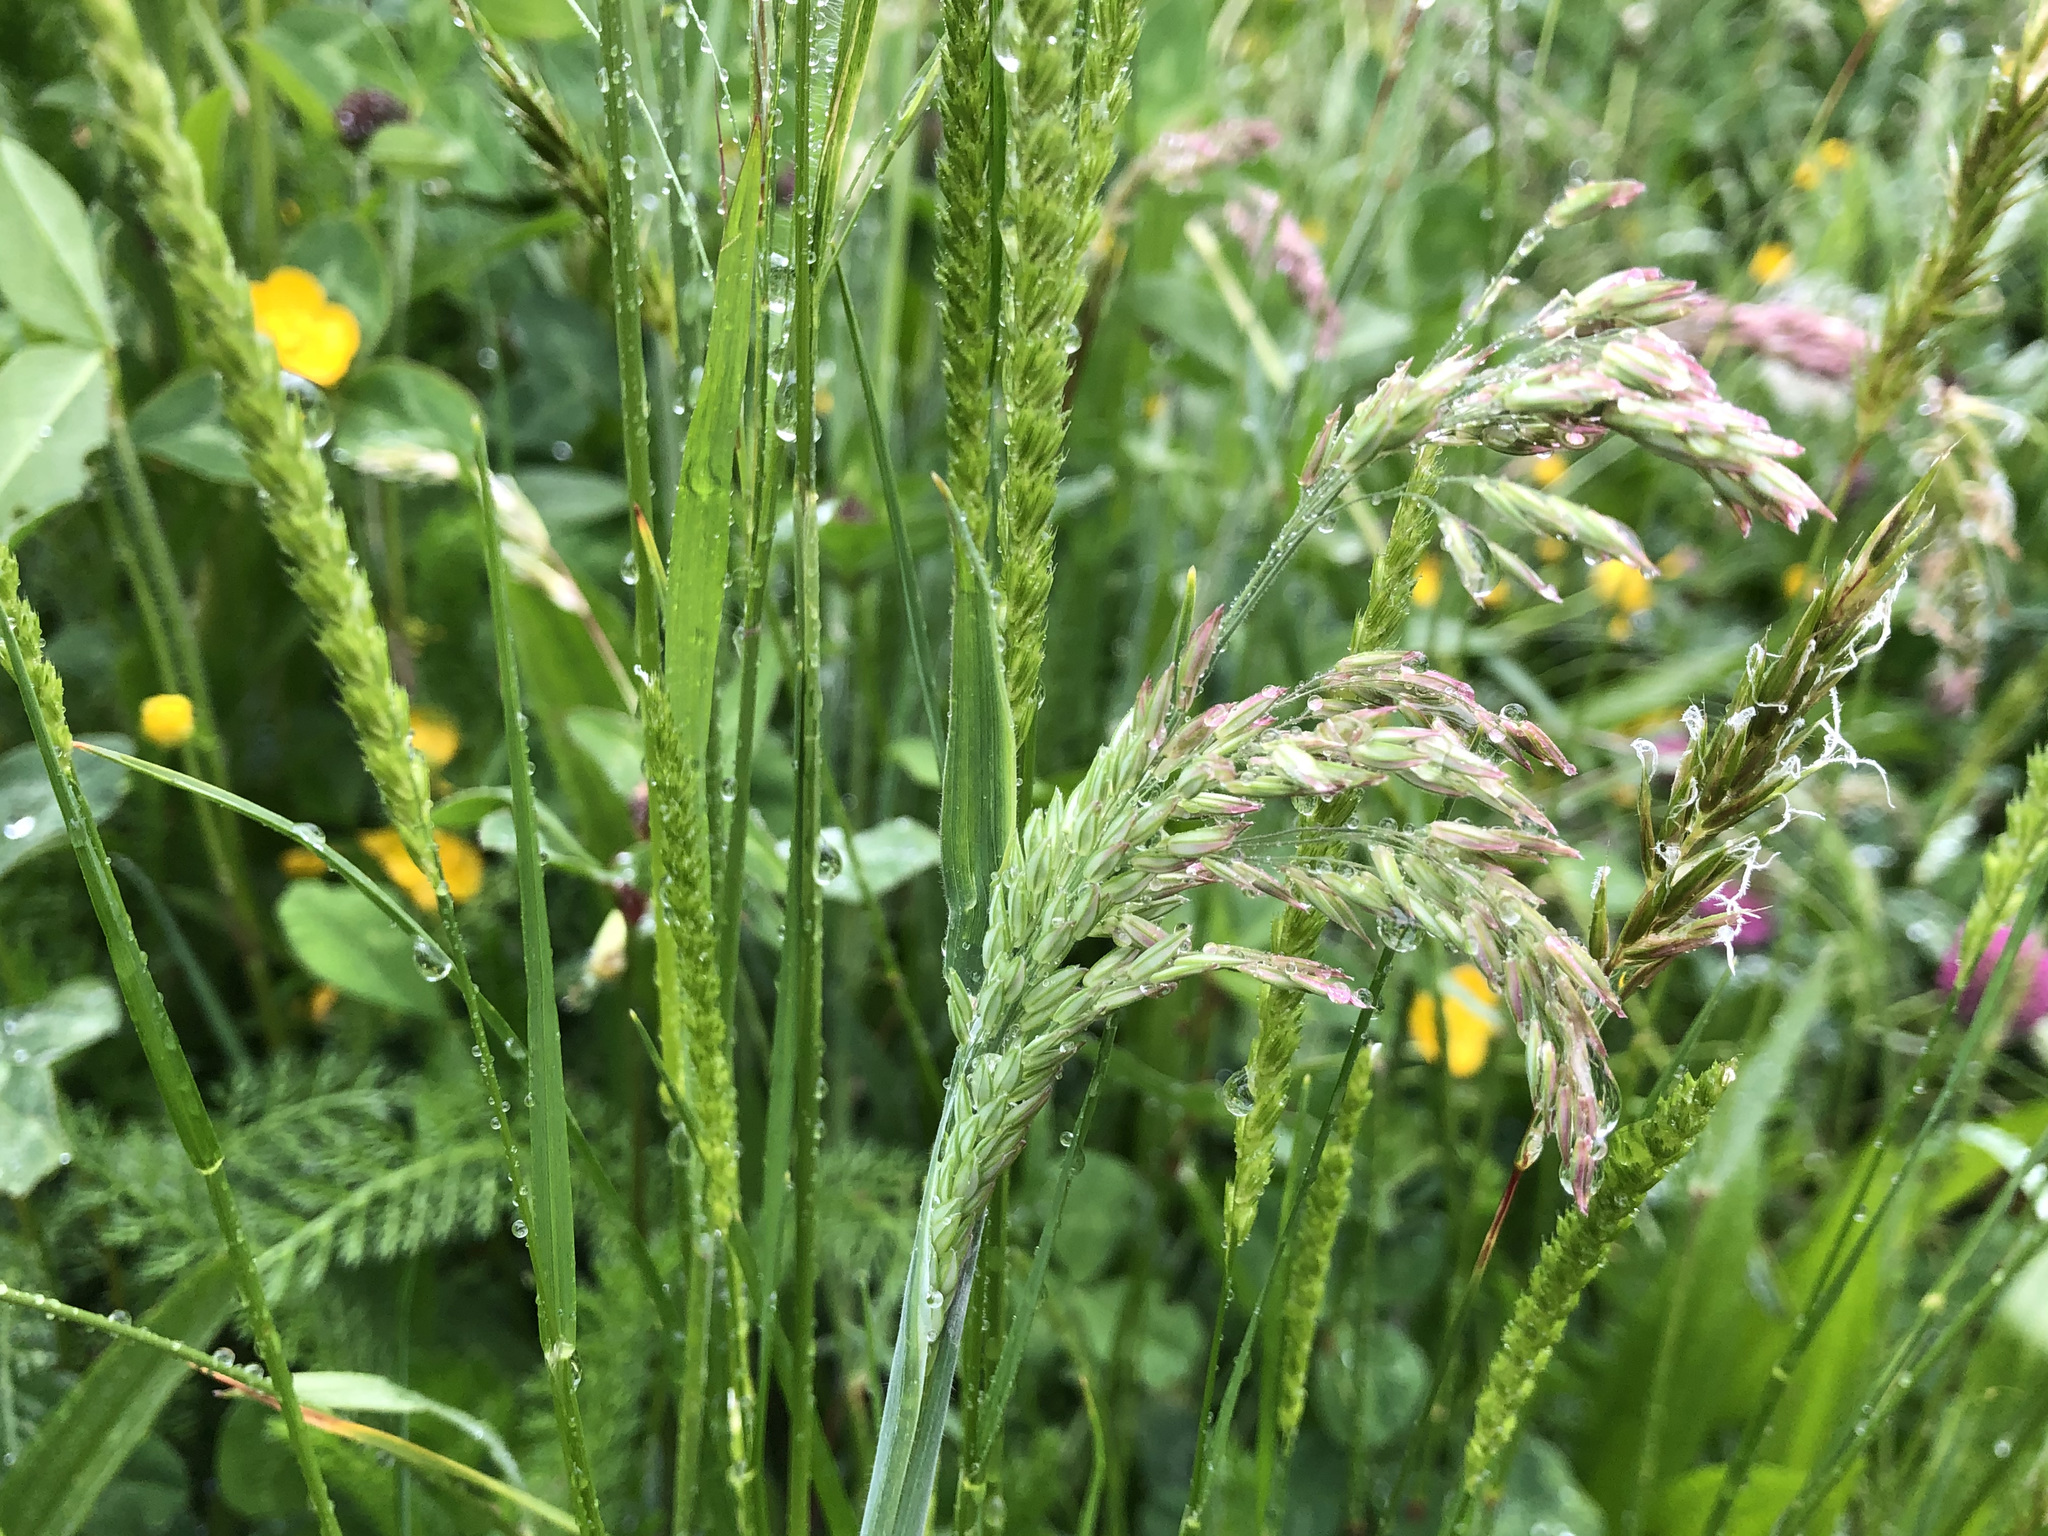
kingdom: Plantae
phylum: Tracheophyta
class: Liliopsida
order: Poales
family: Poaceae
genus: Holcus
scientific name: Holcus lanatus
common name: Yorkshire-fog
